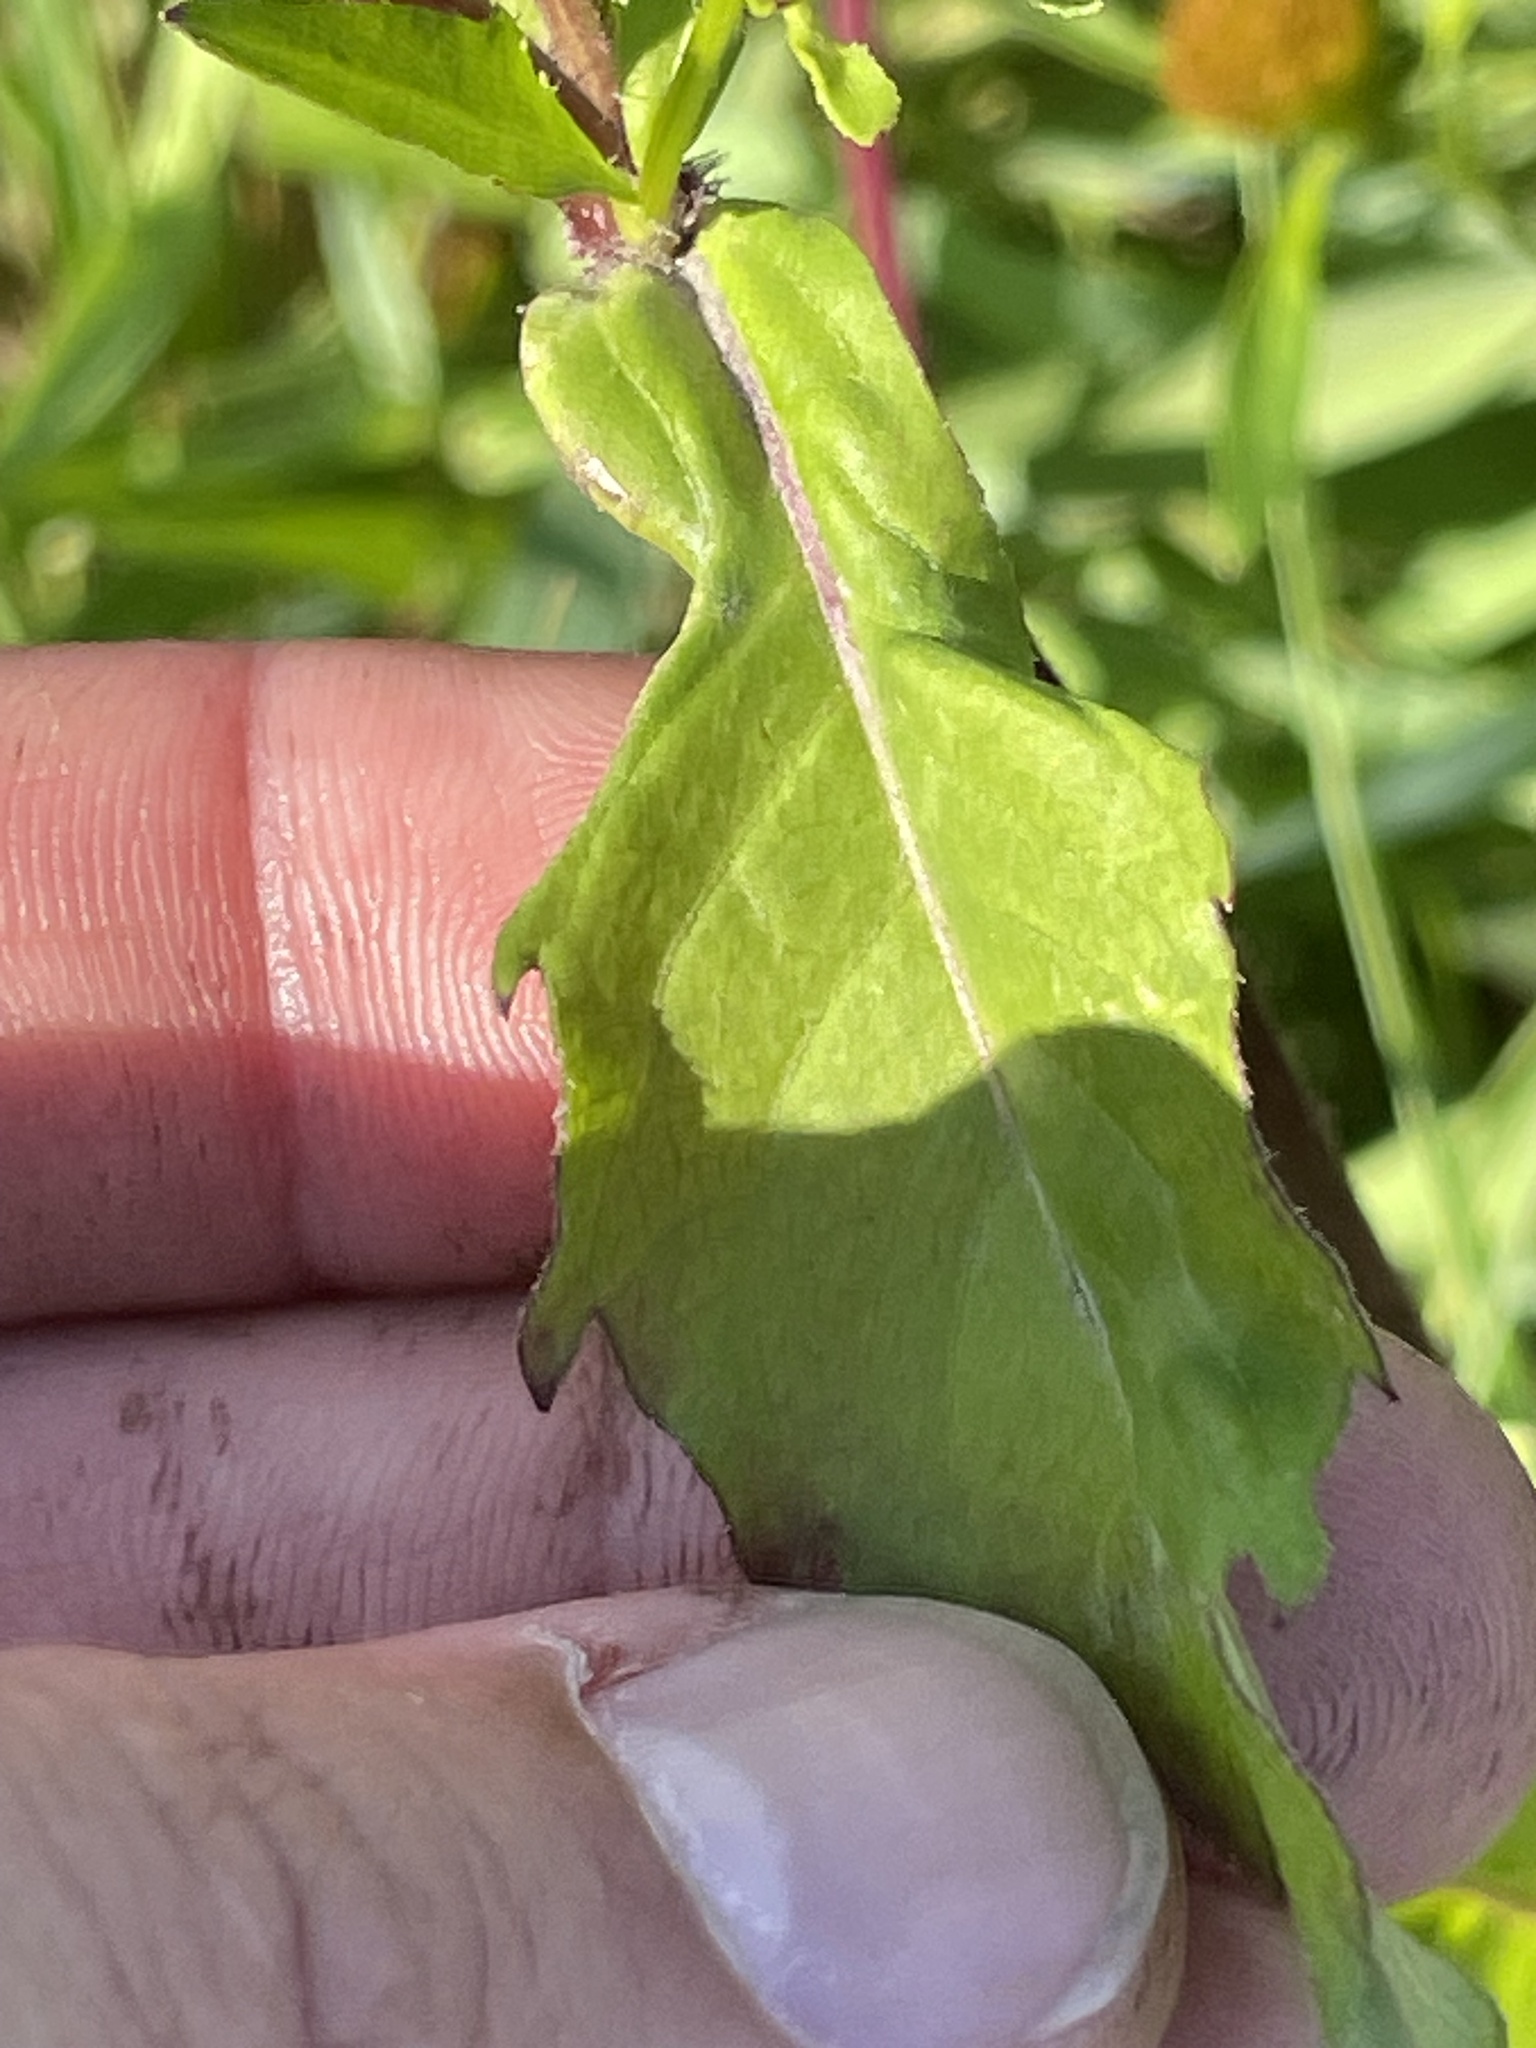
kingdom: Plantae
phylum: Tracheophyta
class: Magnoliopsida
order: Asterales
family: Asteraceae
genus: Bidens
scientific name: Bidens amplissima
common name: Vancouver island beggarticks
